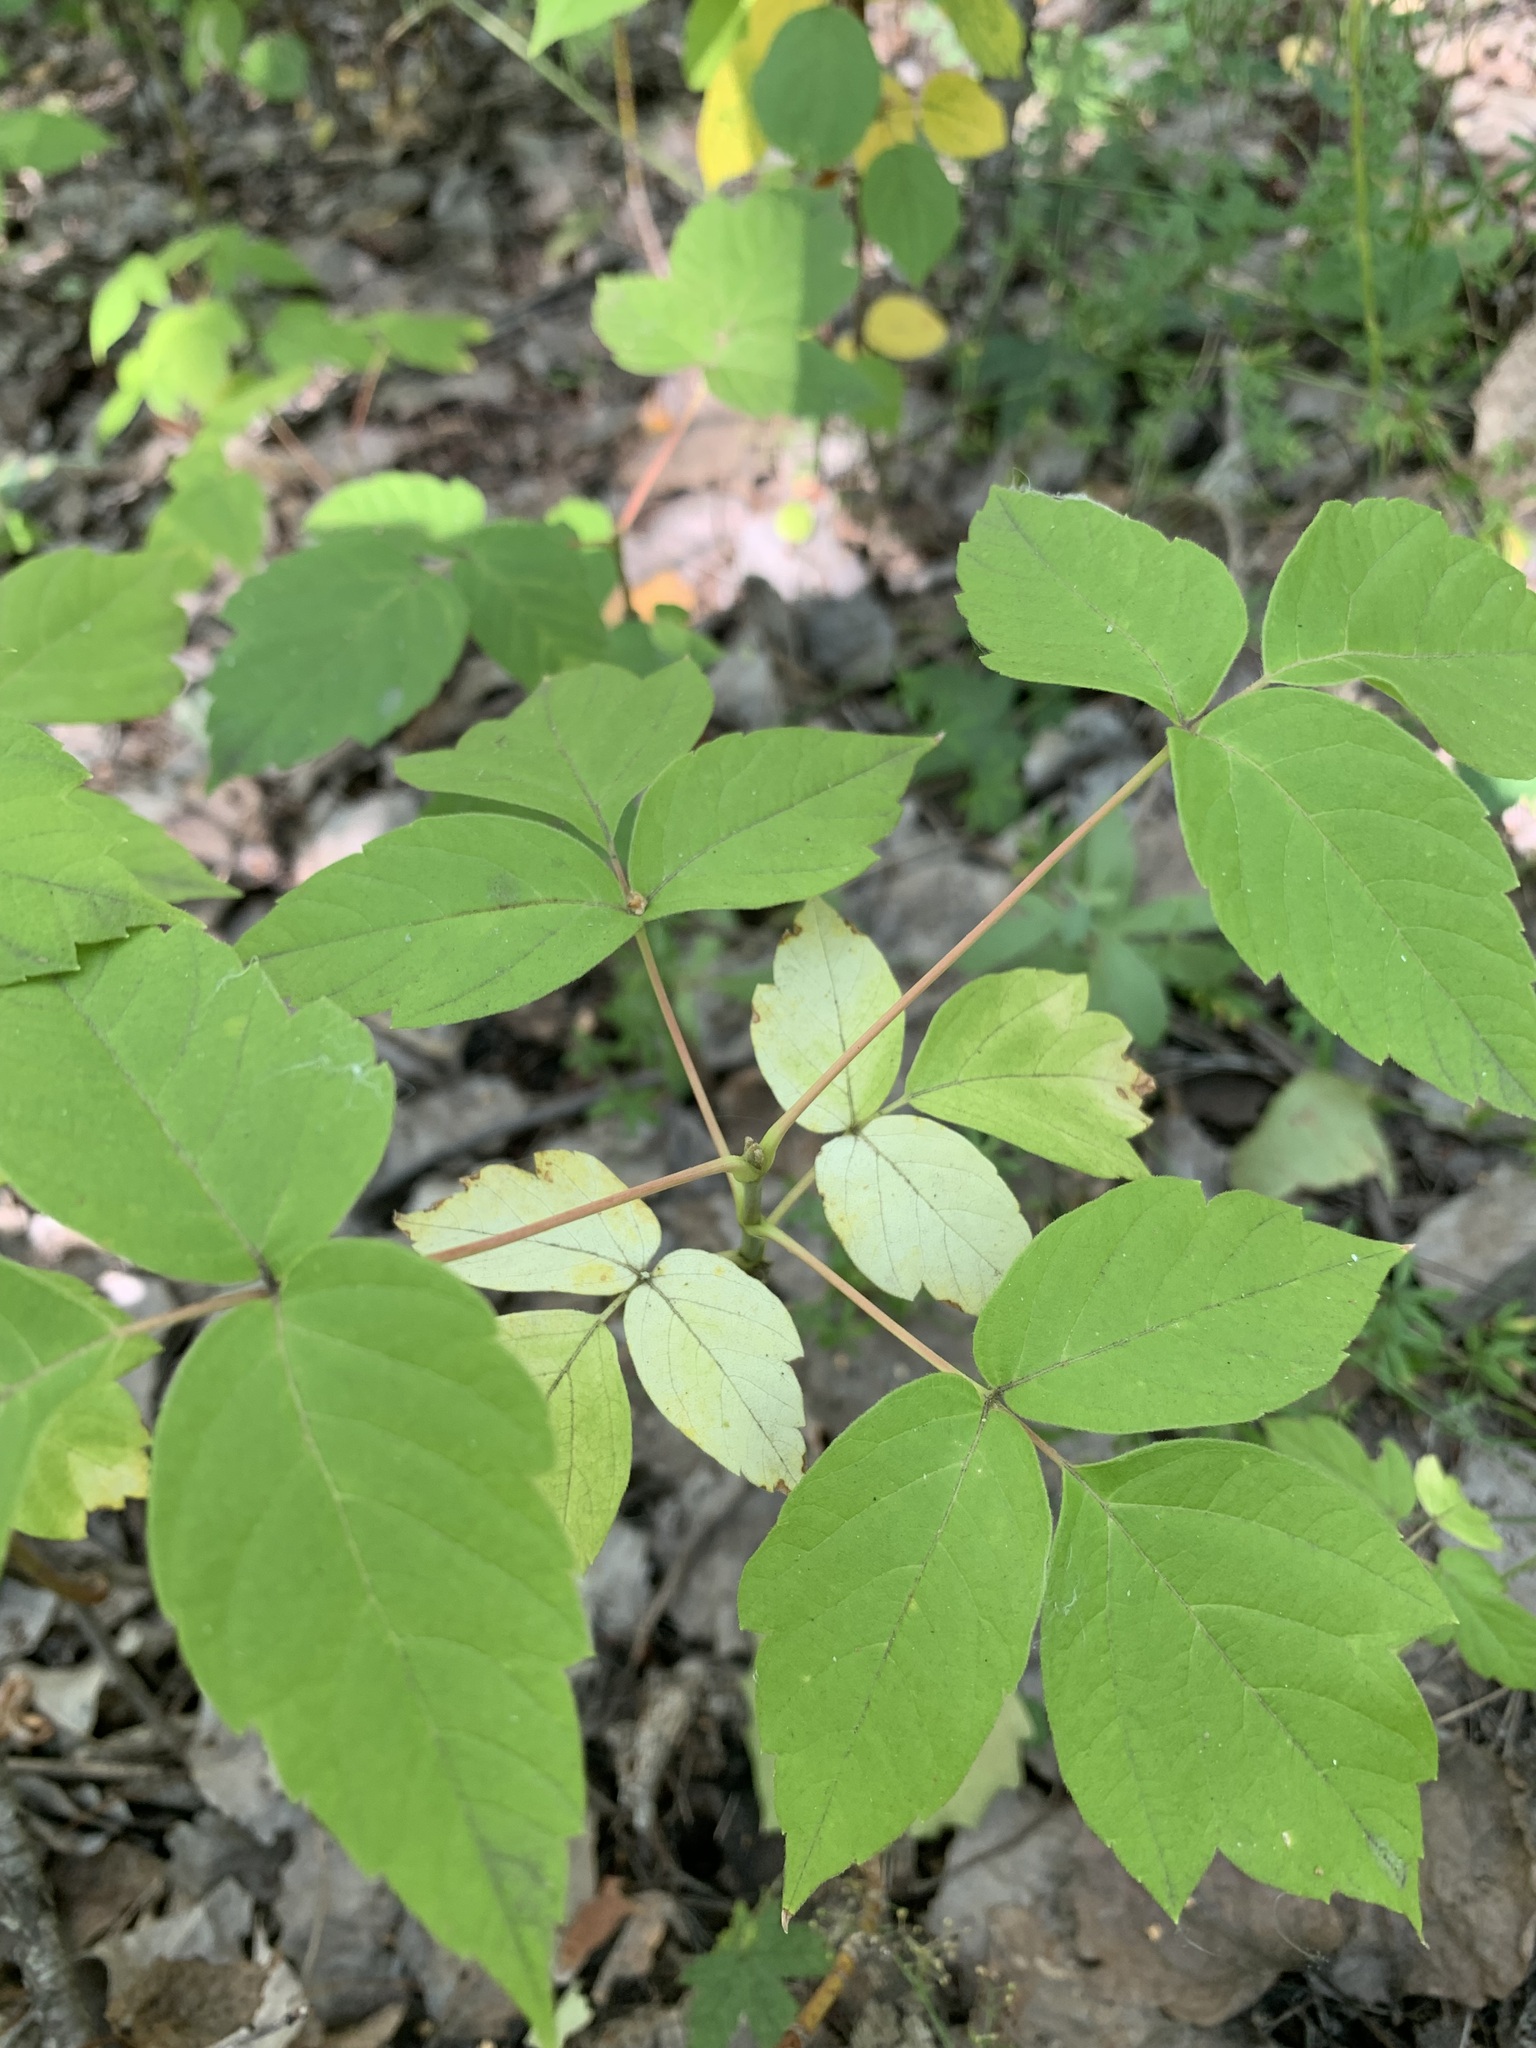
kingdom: Plantae
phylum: Tracheophyta
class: Magnoliopsida
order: Sapindales
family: Sapindaceae
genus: Acer
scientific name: Acer negundo
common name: Ashleaf maple
